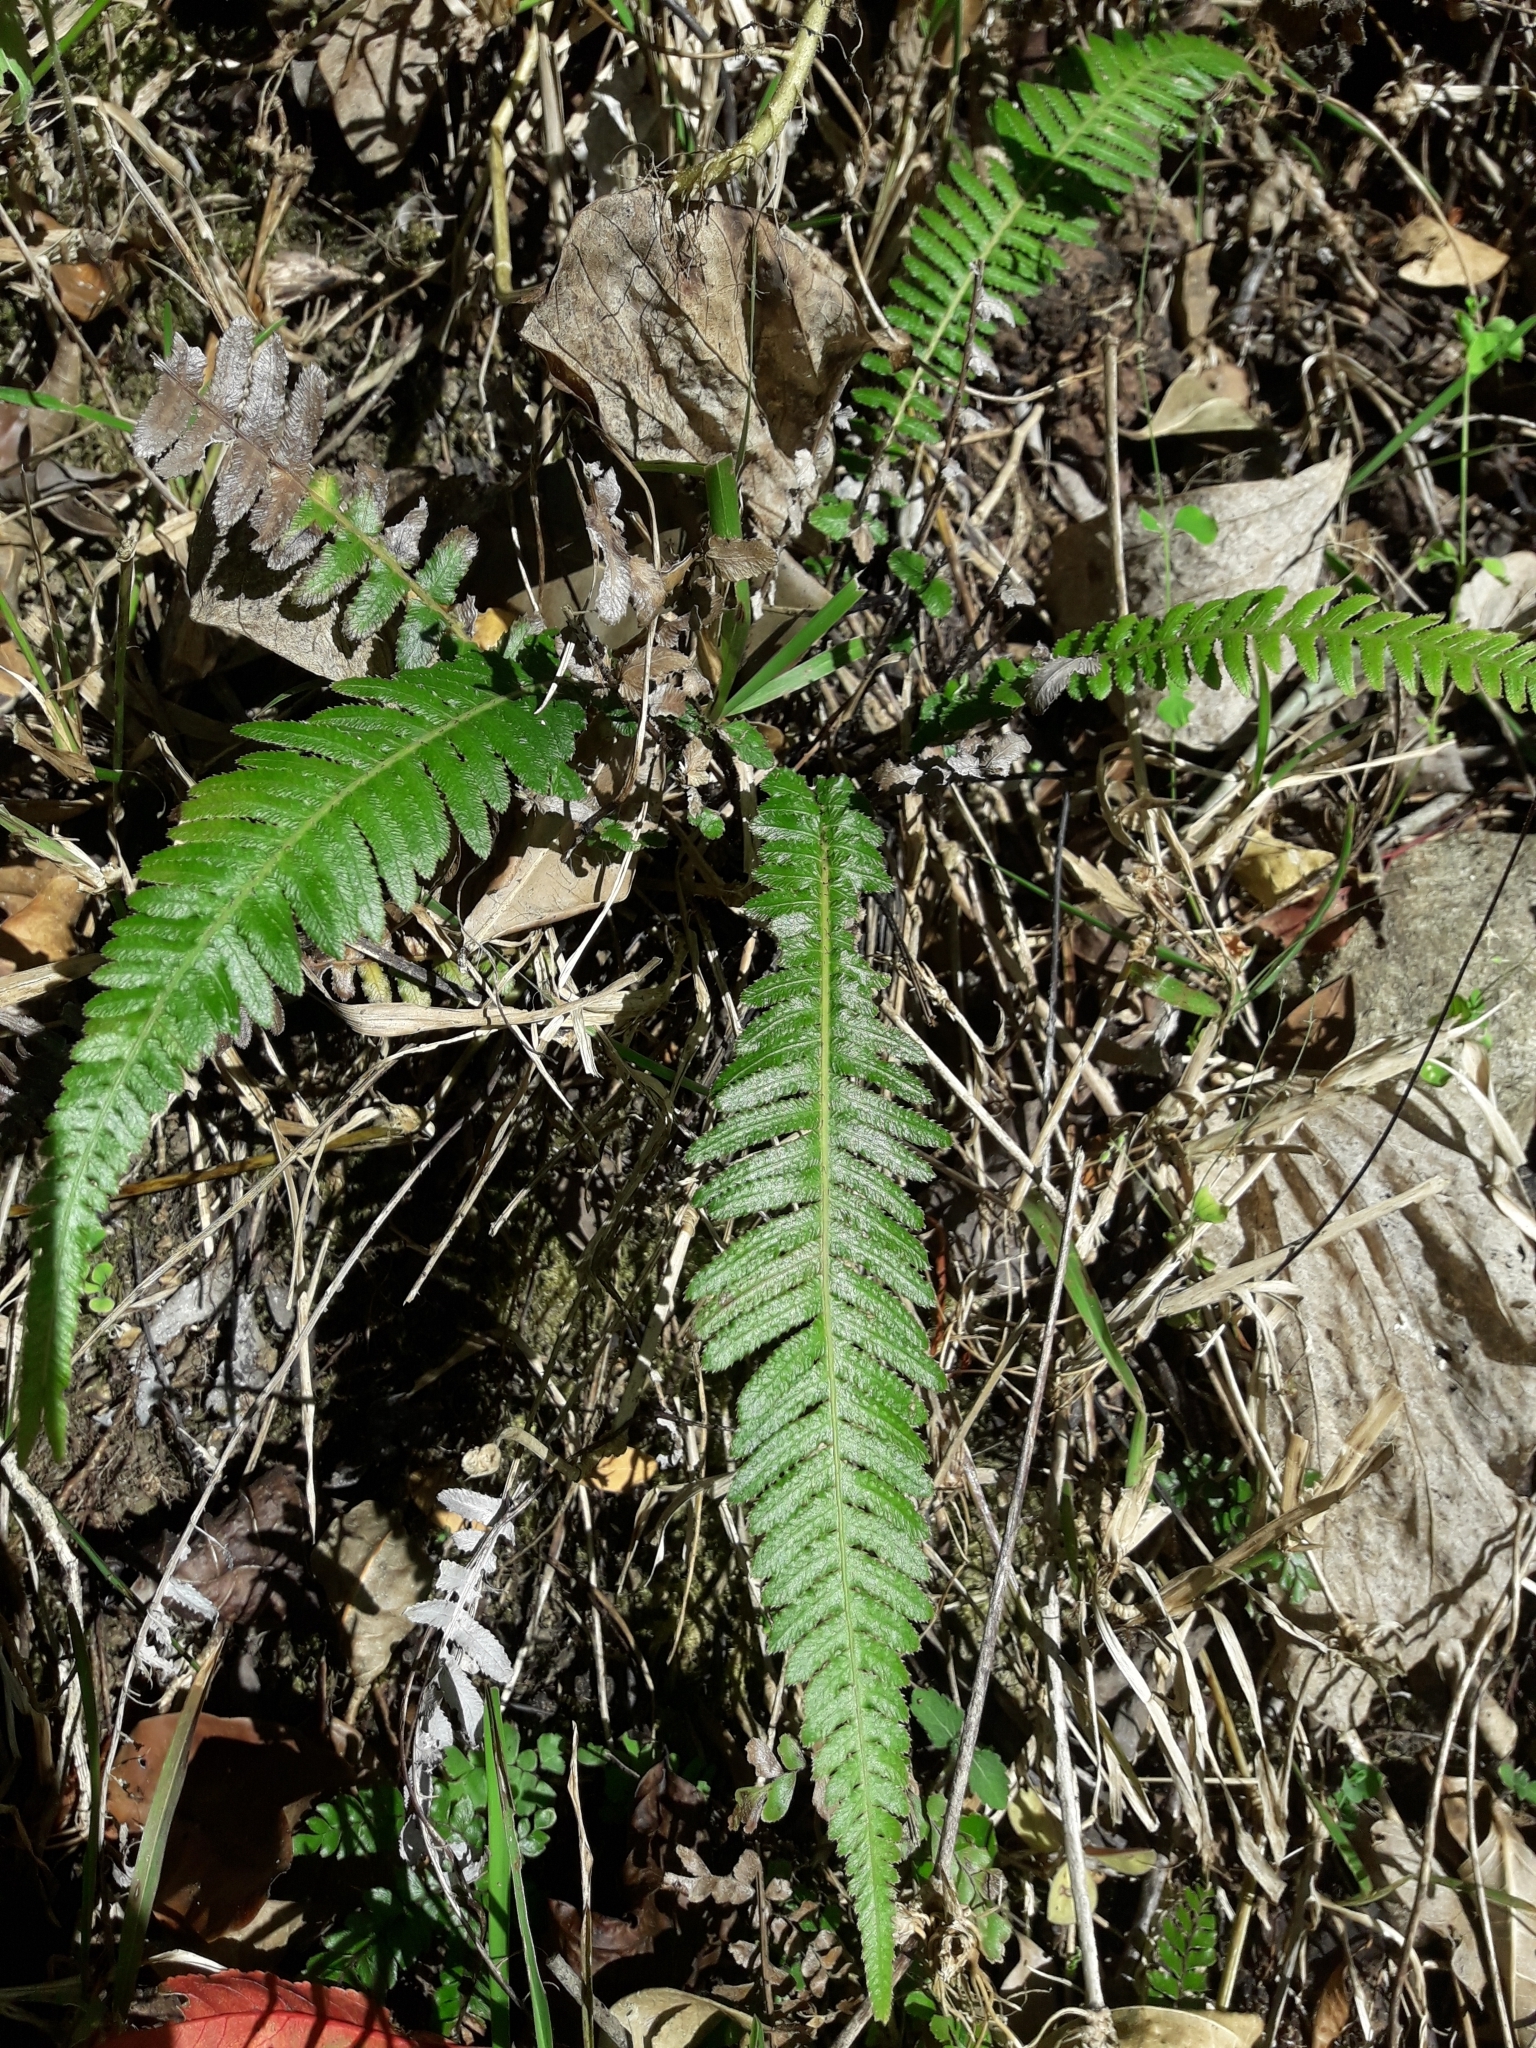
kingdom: Plantae
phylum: Tracheophyta
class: Polypodiopsida
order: Polypodiales
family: Blechnaceae
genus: Doodia
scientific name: Doodia media
